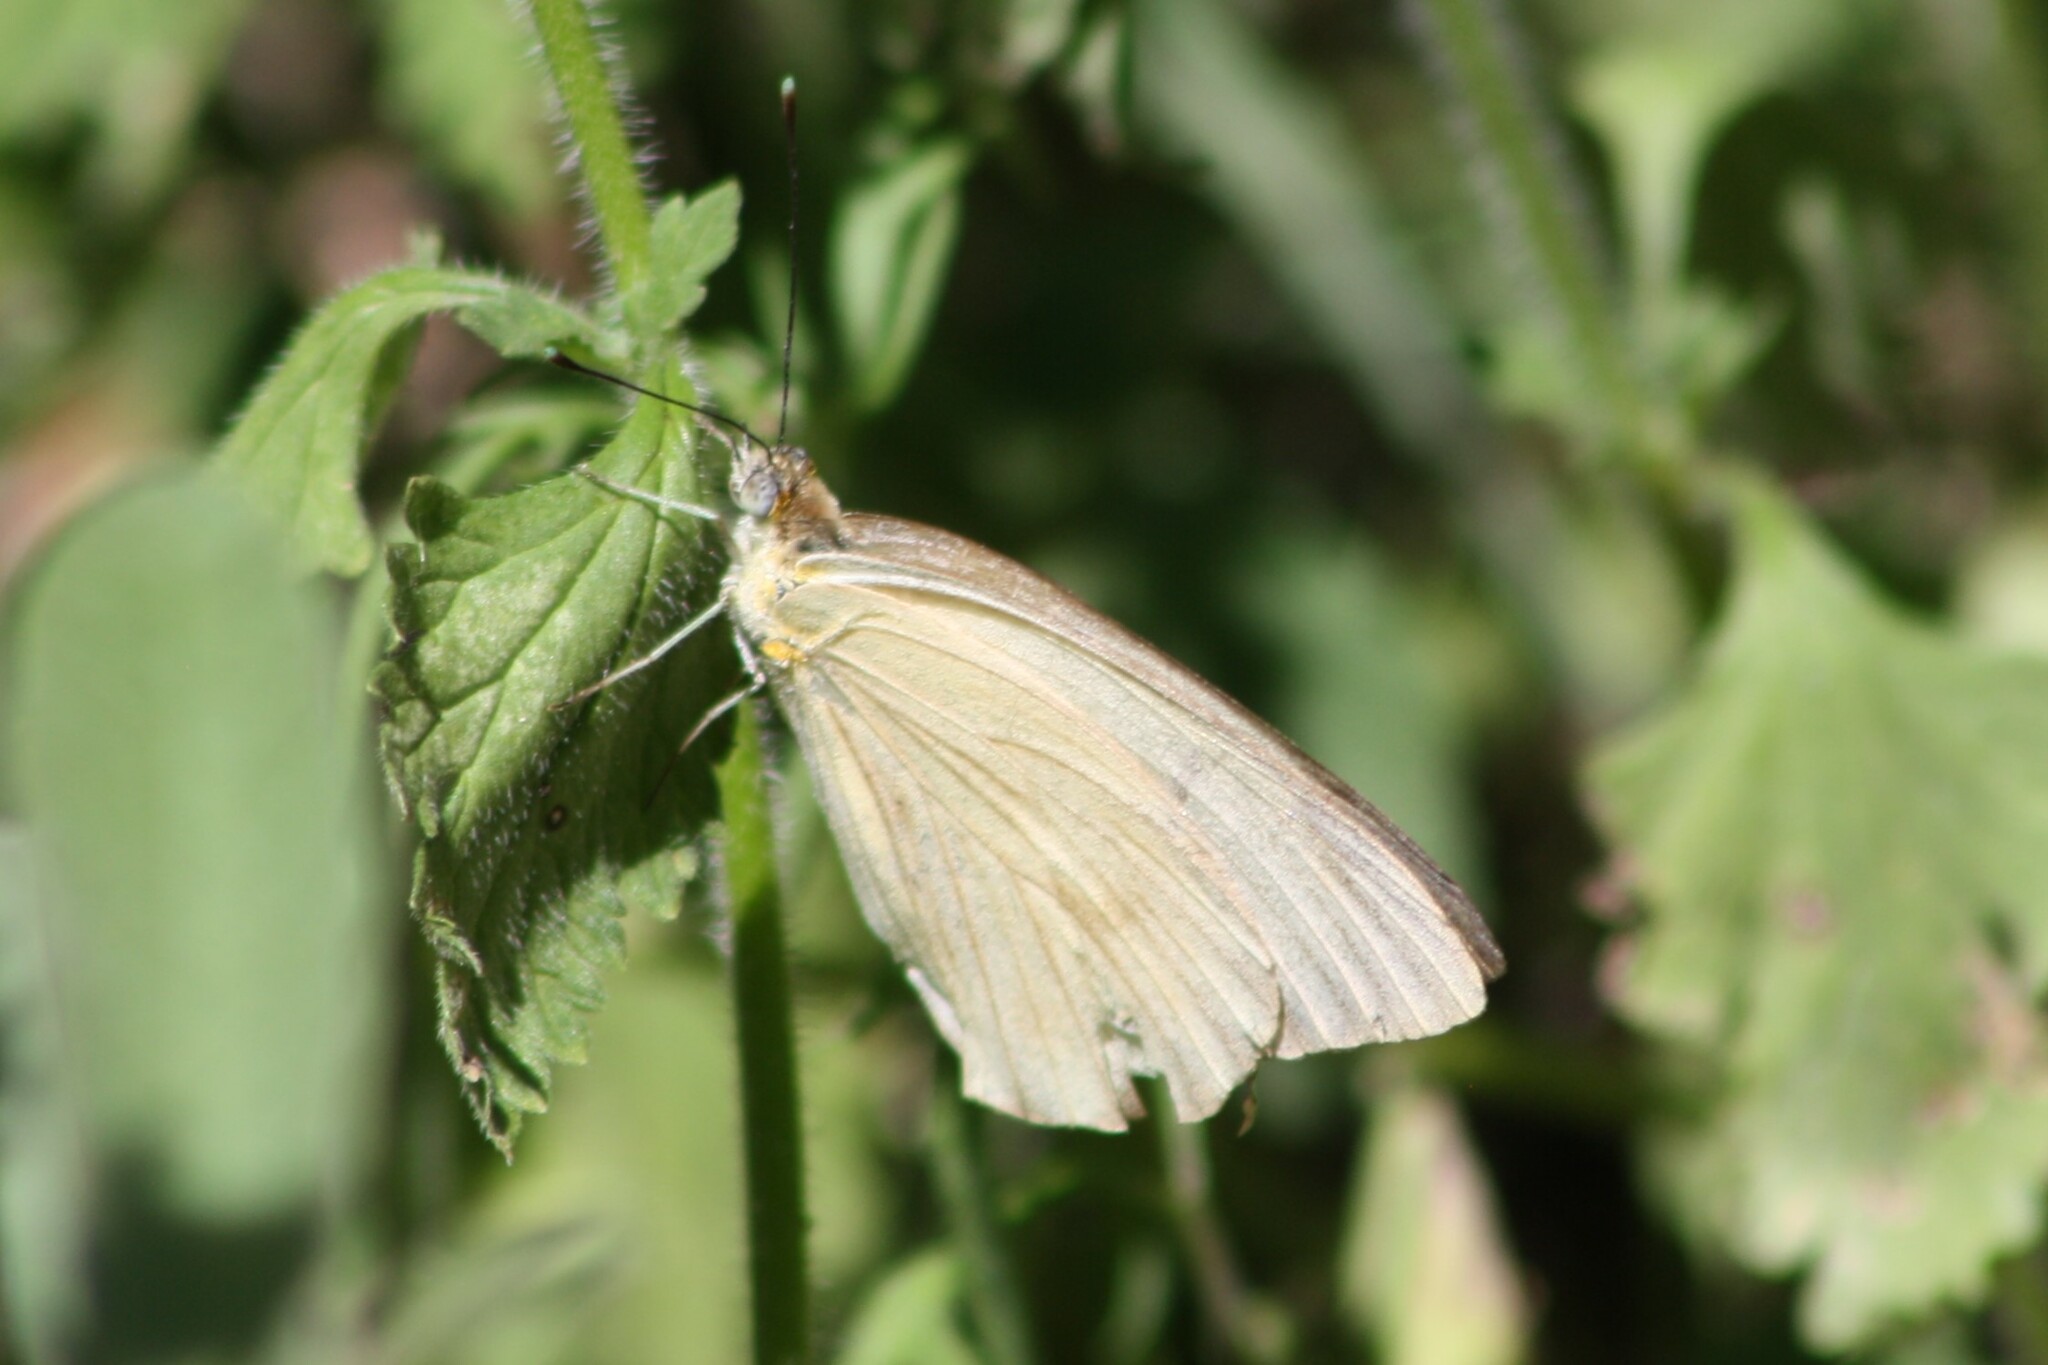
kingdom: Animalia
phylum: Arthropoda
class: Insecta
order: Lepidoptera
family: Pieridae
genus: Ascia
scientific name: Ascia monuste
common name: Great southern white
